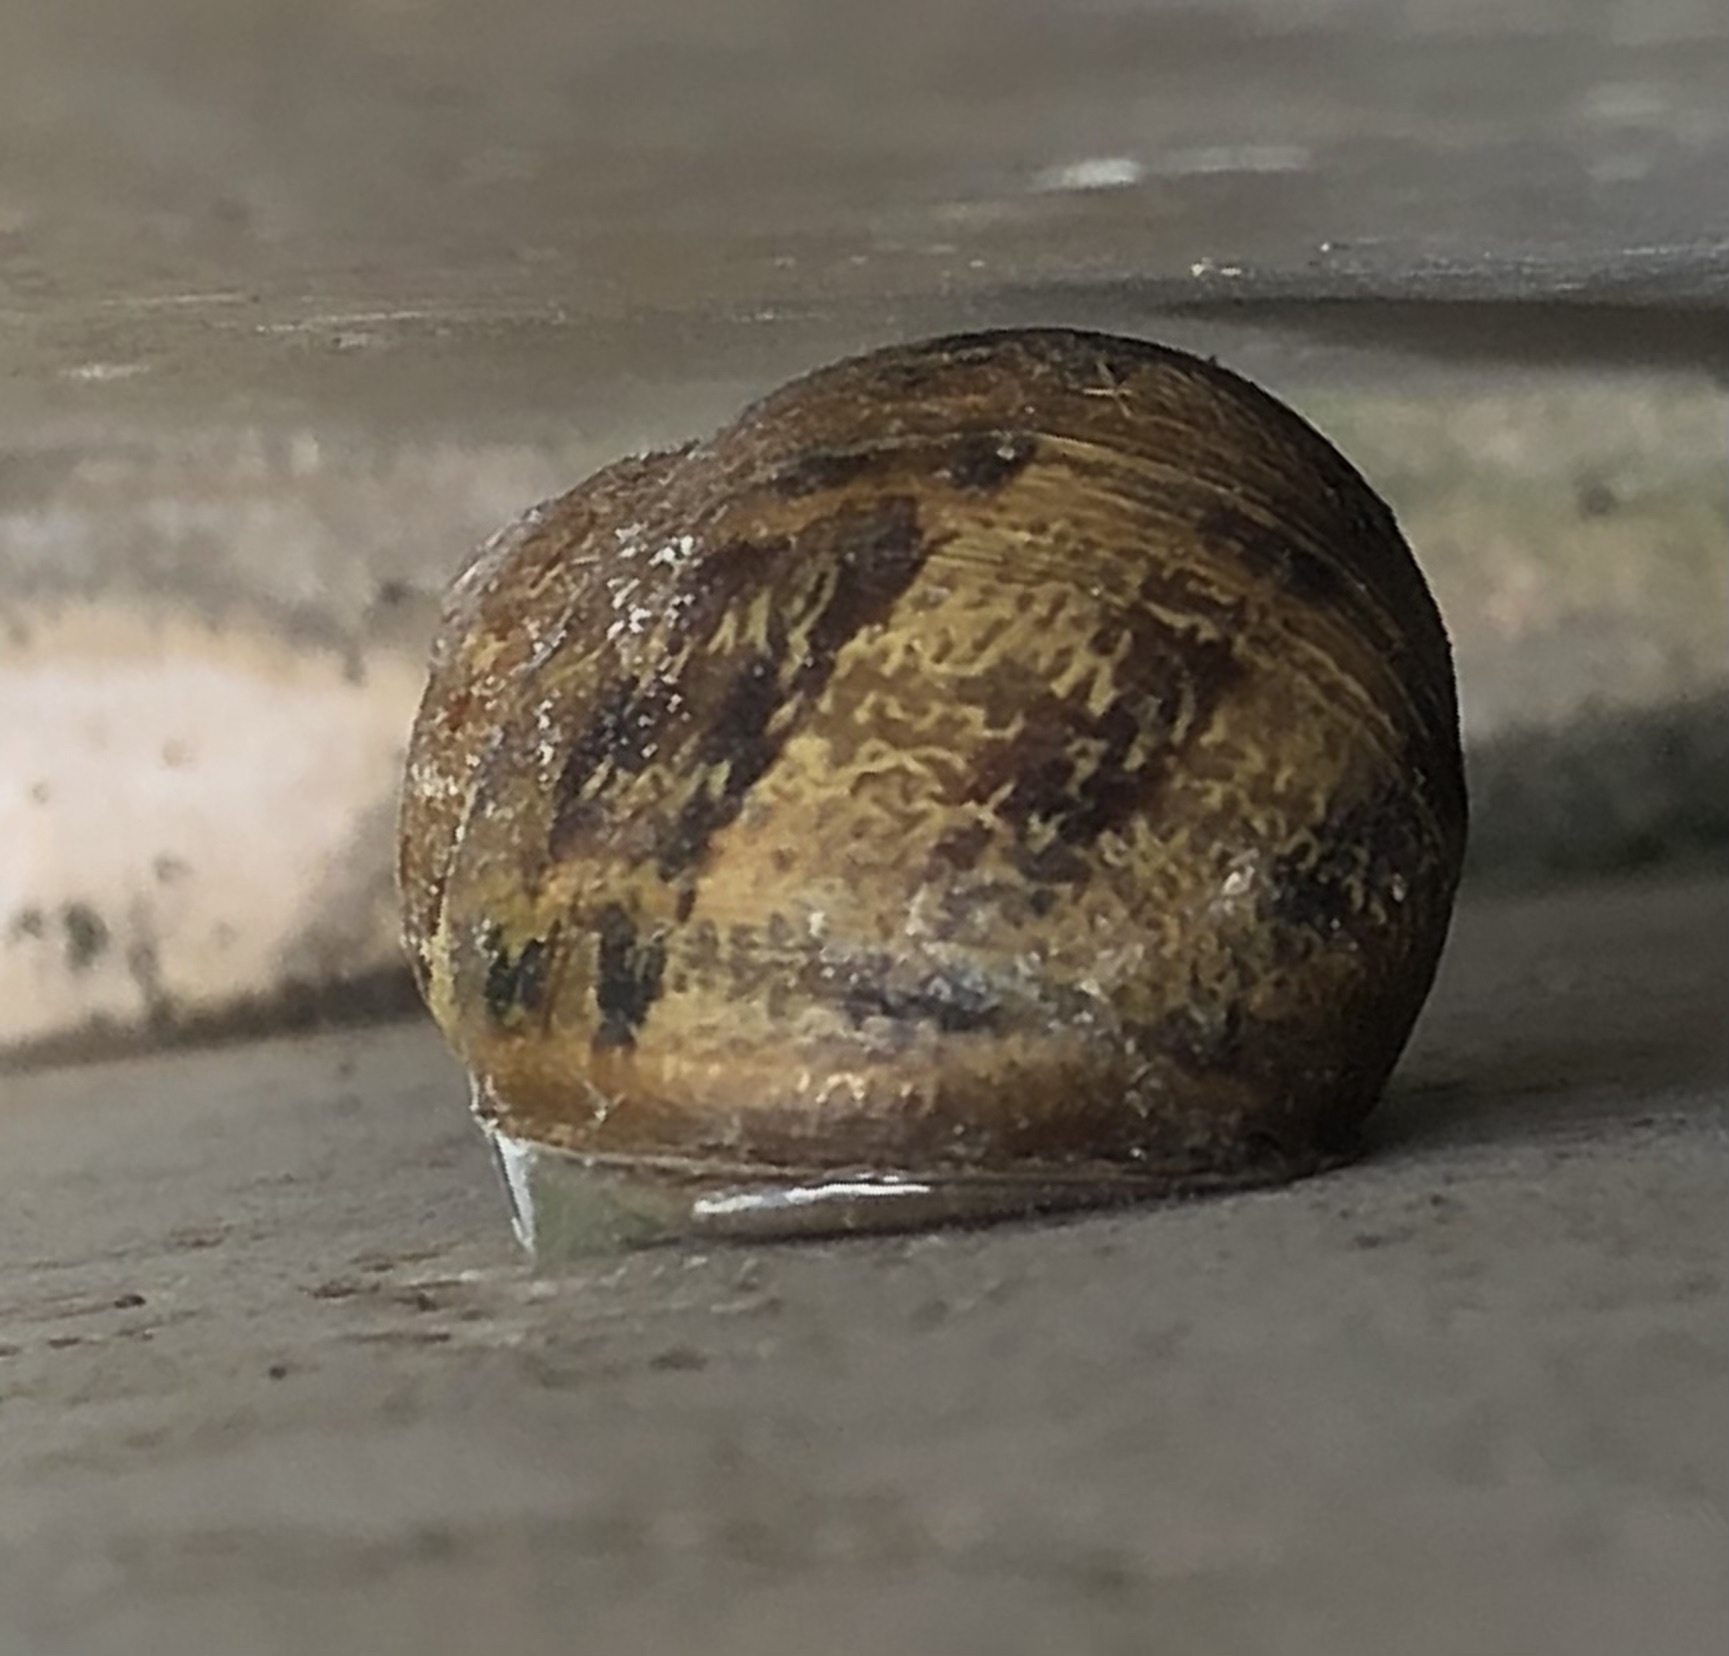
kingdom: Animalia
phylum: Mollusca
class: Gastropoda
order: Stylommatophora
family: Helicidae
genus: Cornu
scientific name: Cornu aspersum
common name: Brown garden snail
